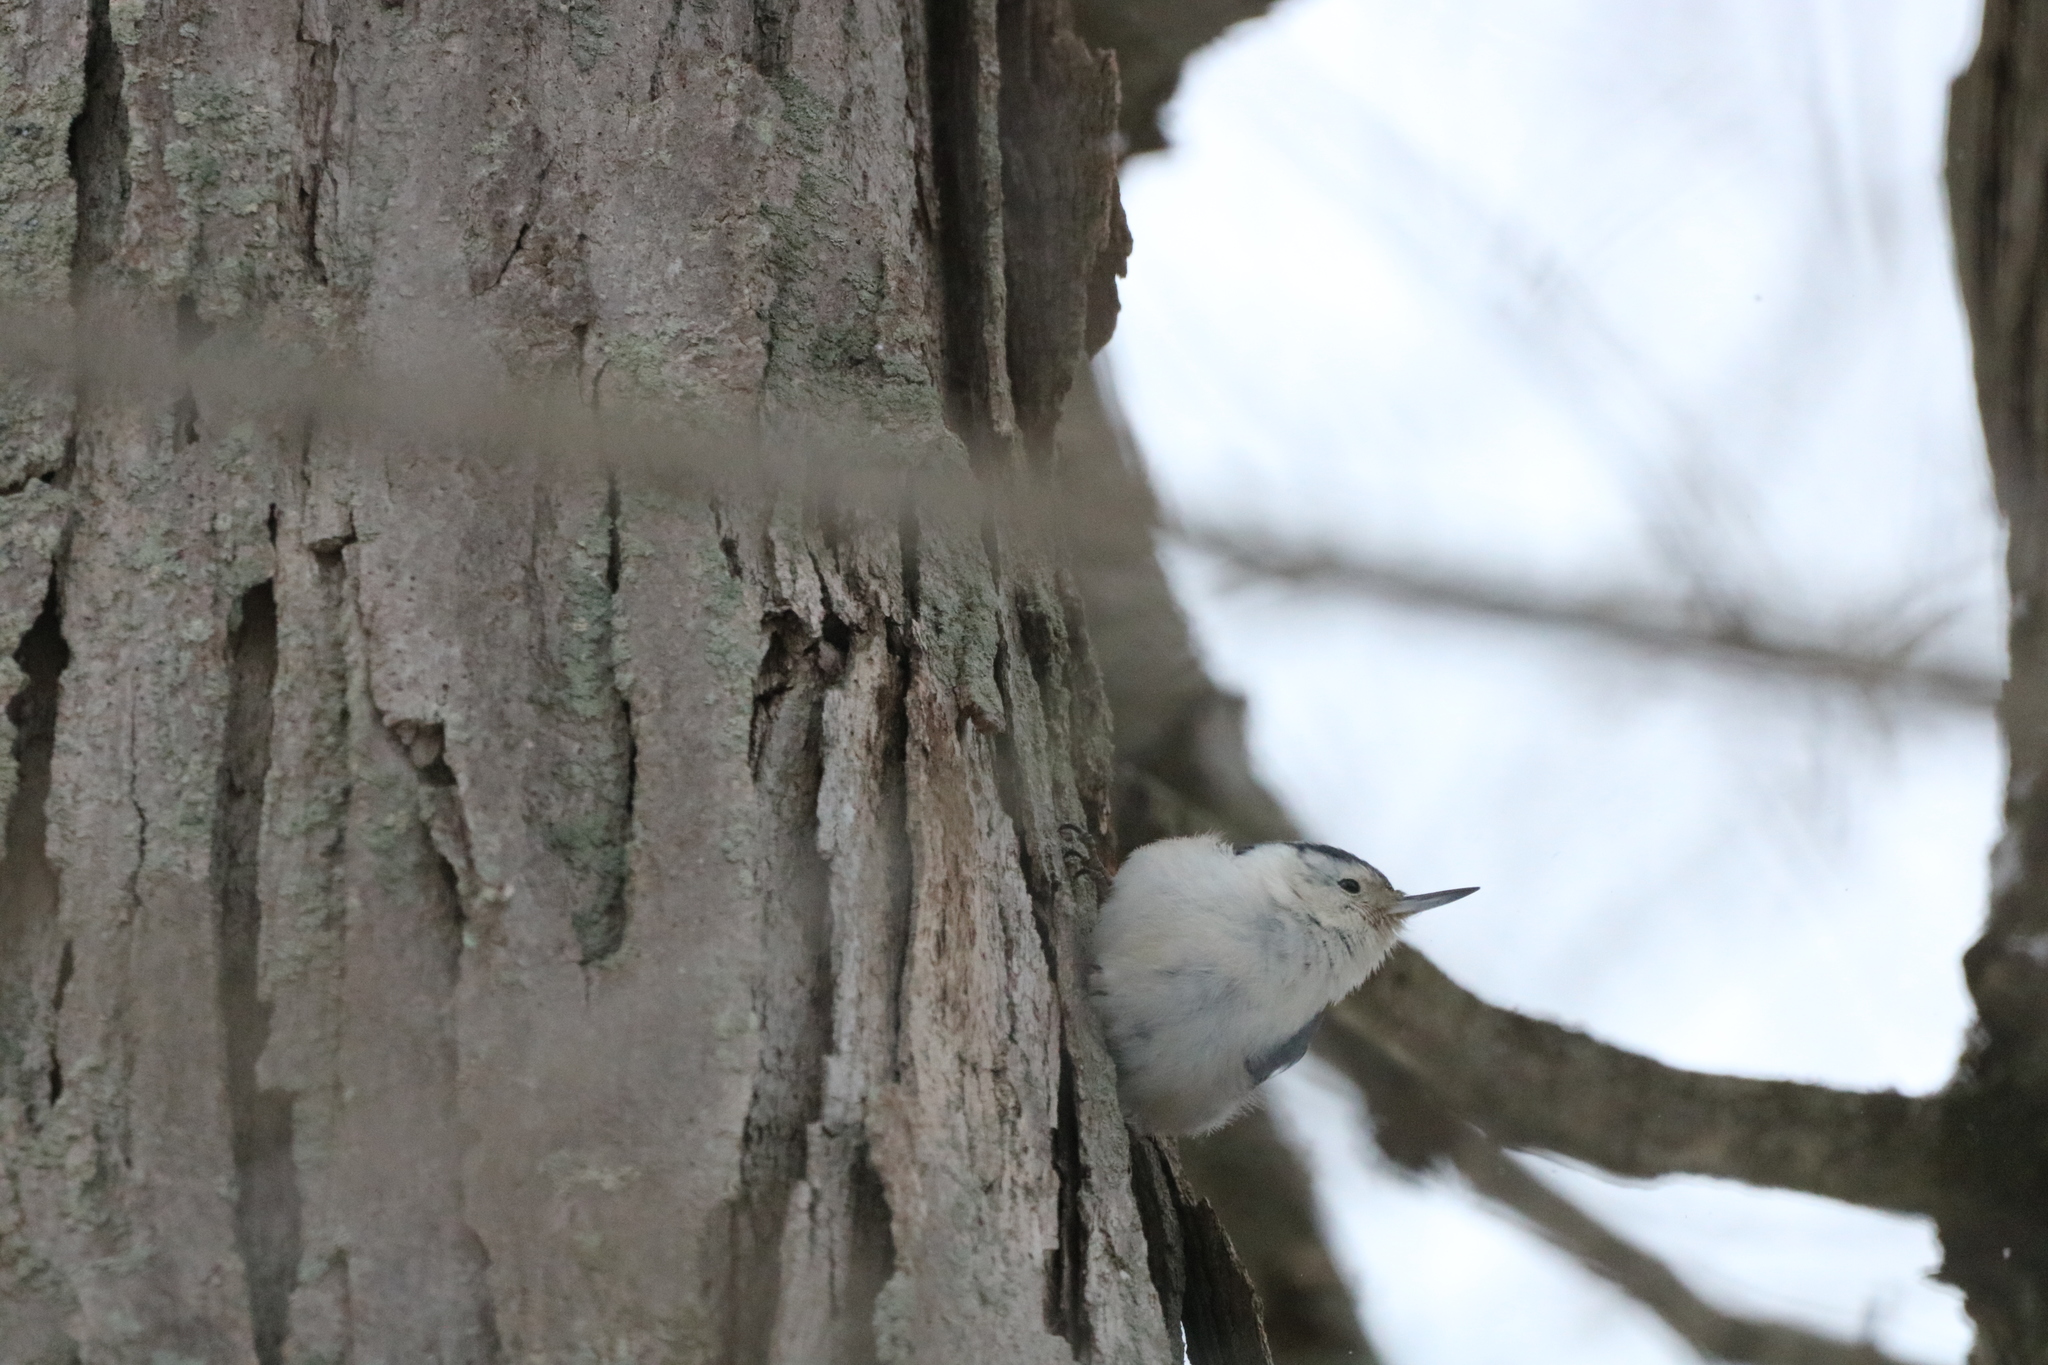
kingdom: Animalia
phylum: Chordata
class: Aves
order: Passeriformes
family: Sittidae
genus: Sitta
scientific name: Sitta carolinensis
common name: White-breasted nuthatch
